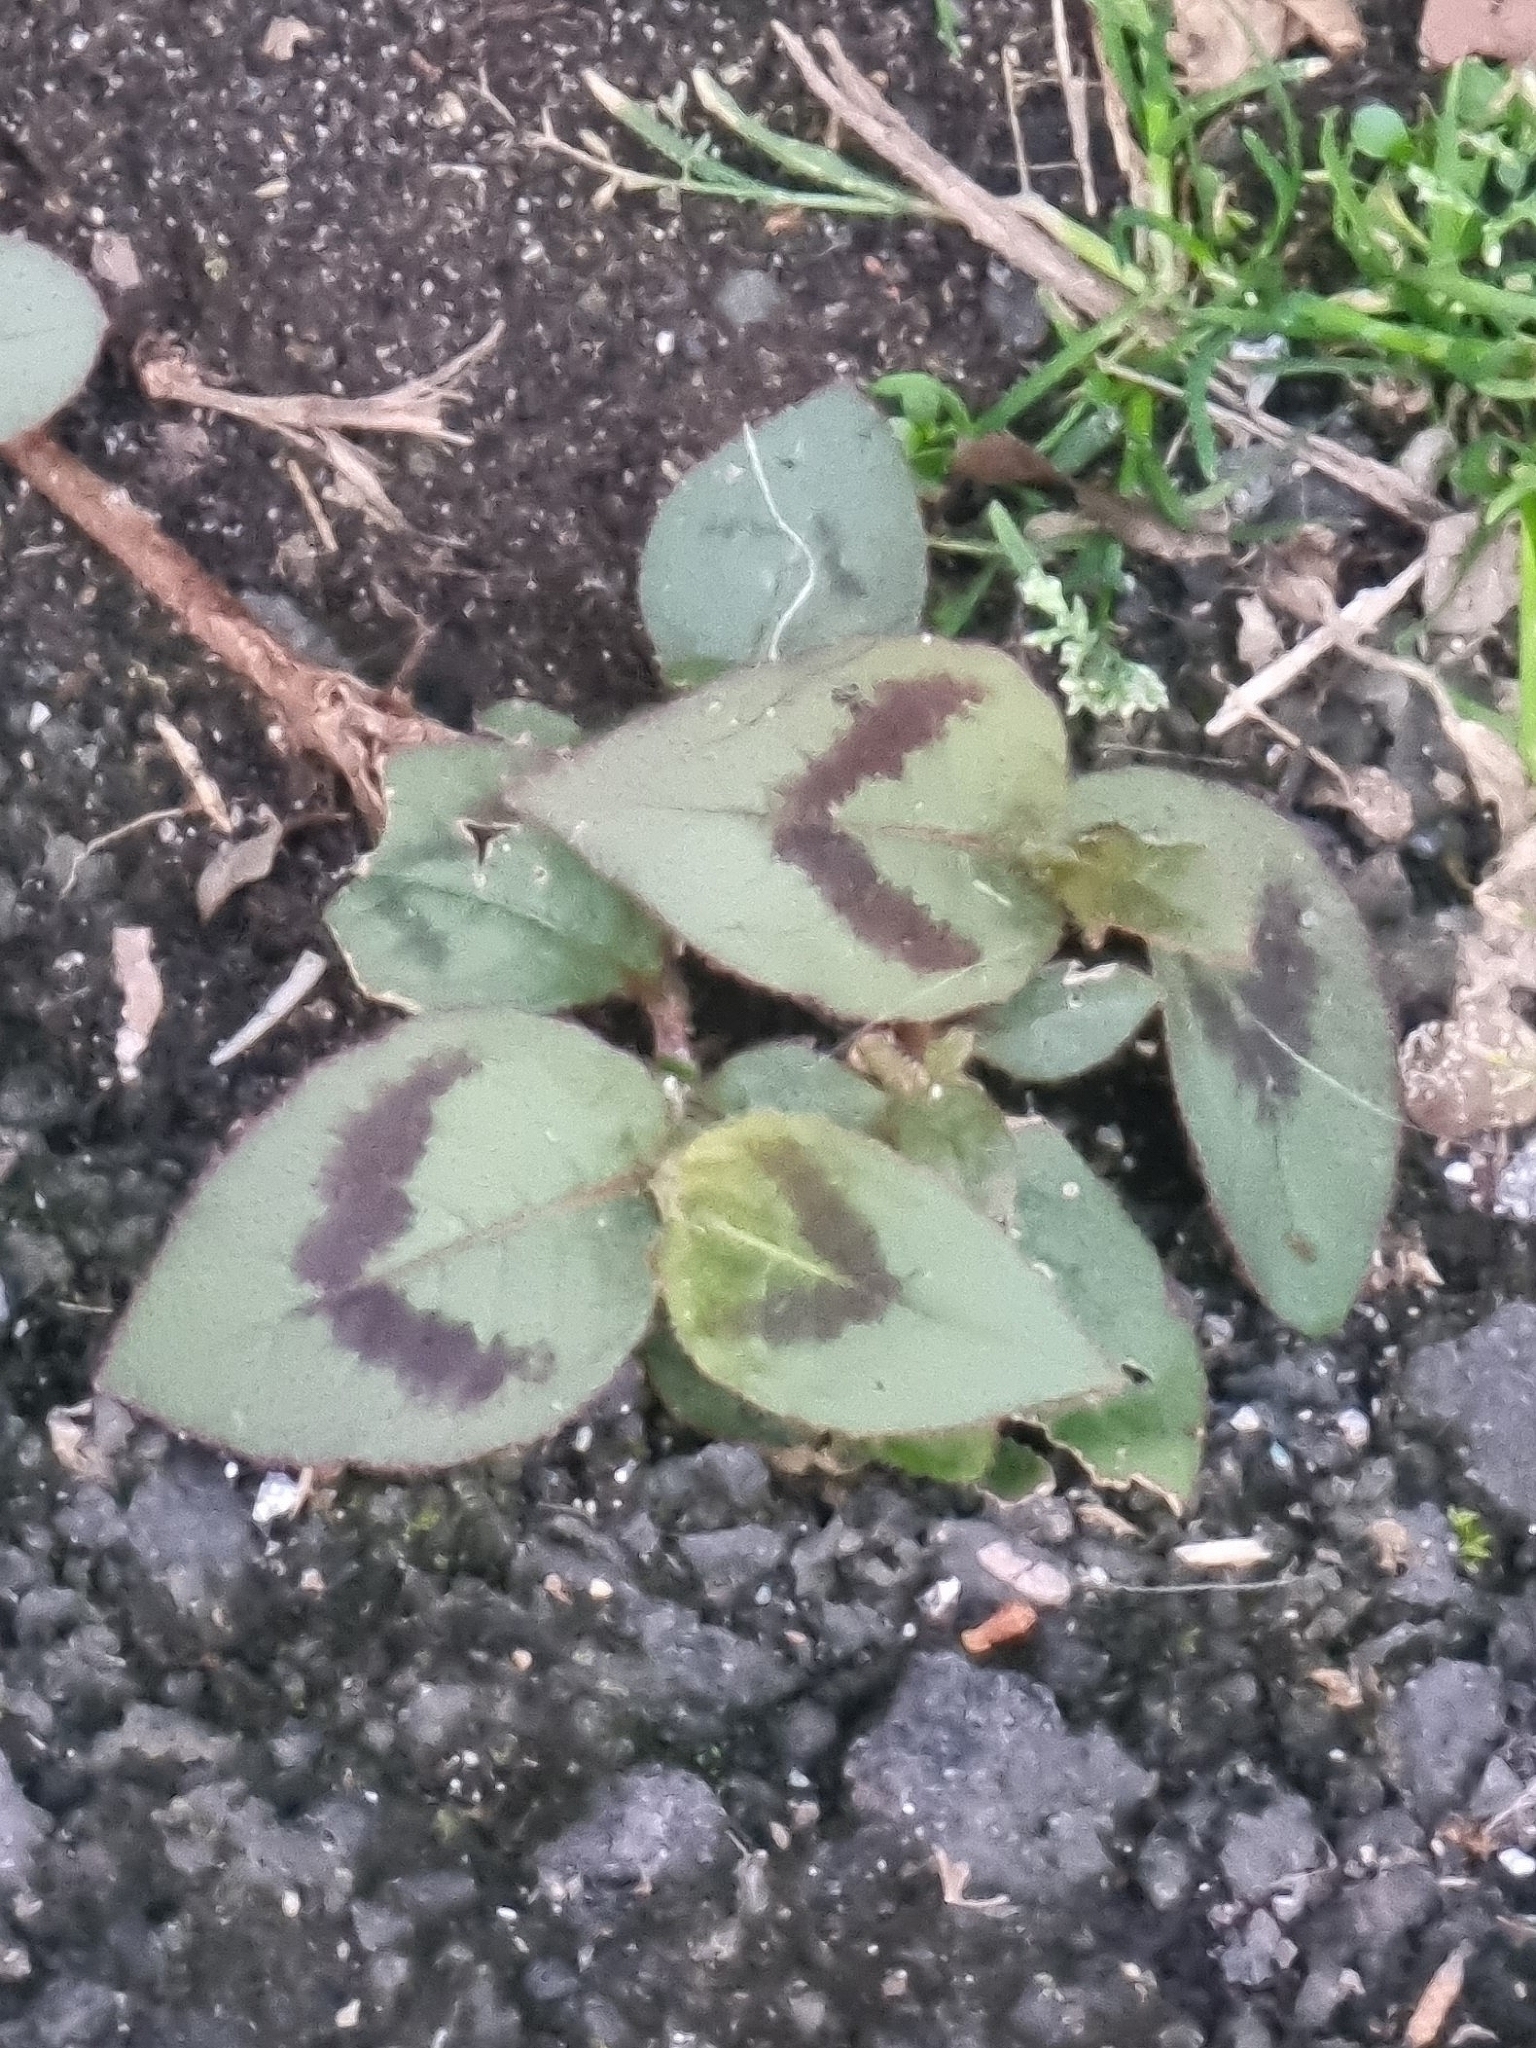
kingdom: Plantae
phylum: Tracheophyta
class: Magnoliopsida
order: Caryophyllales
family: Polygonaceae
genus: Persicaria
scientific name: Persicaria capitata
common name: Pinkhead smartweed
